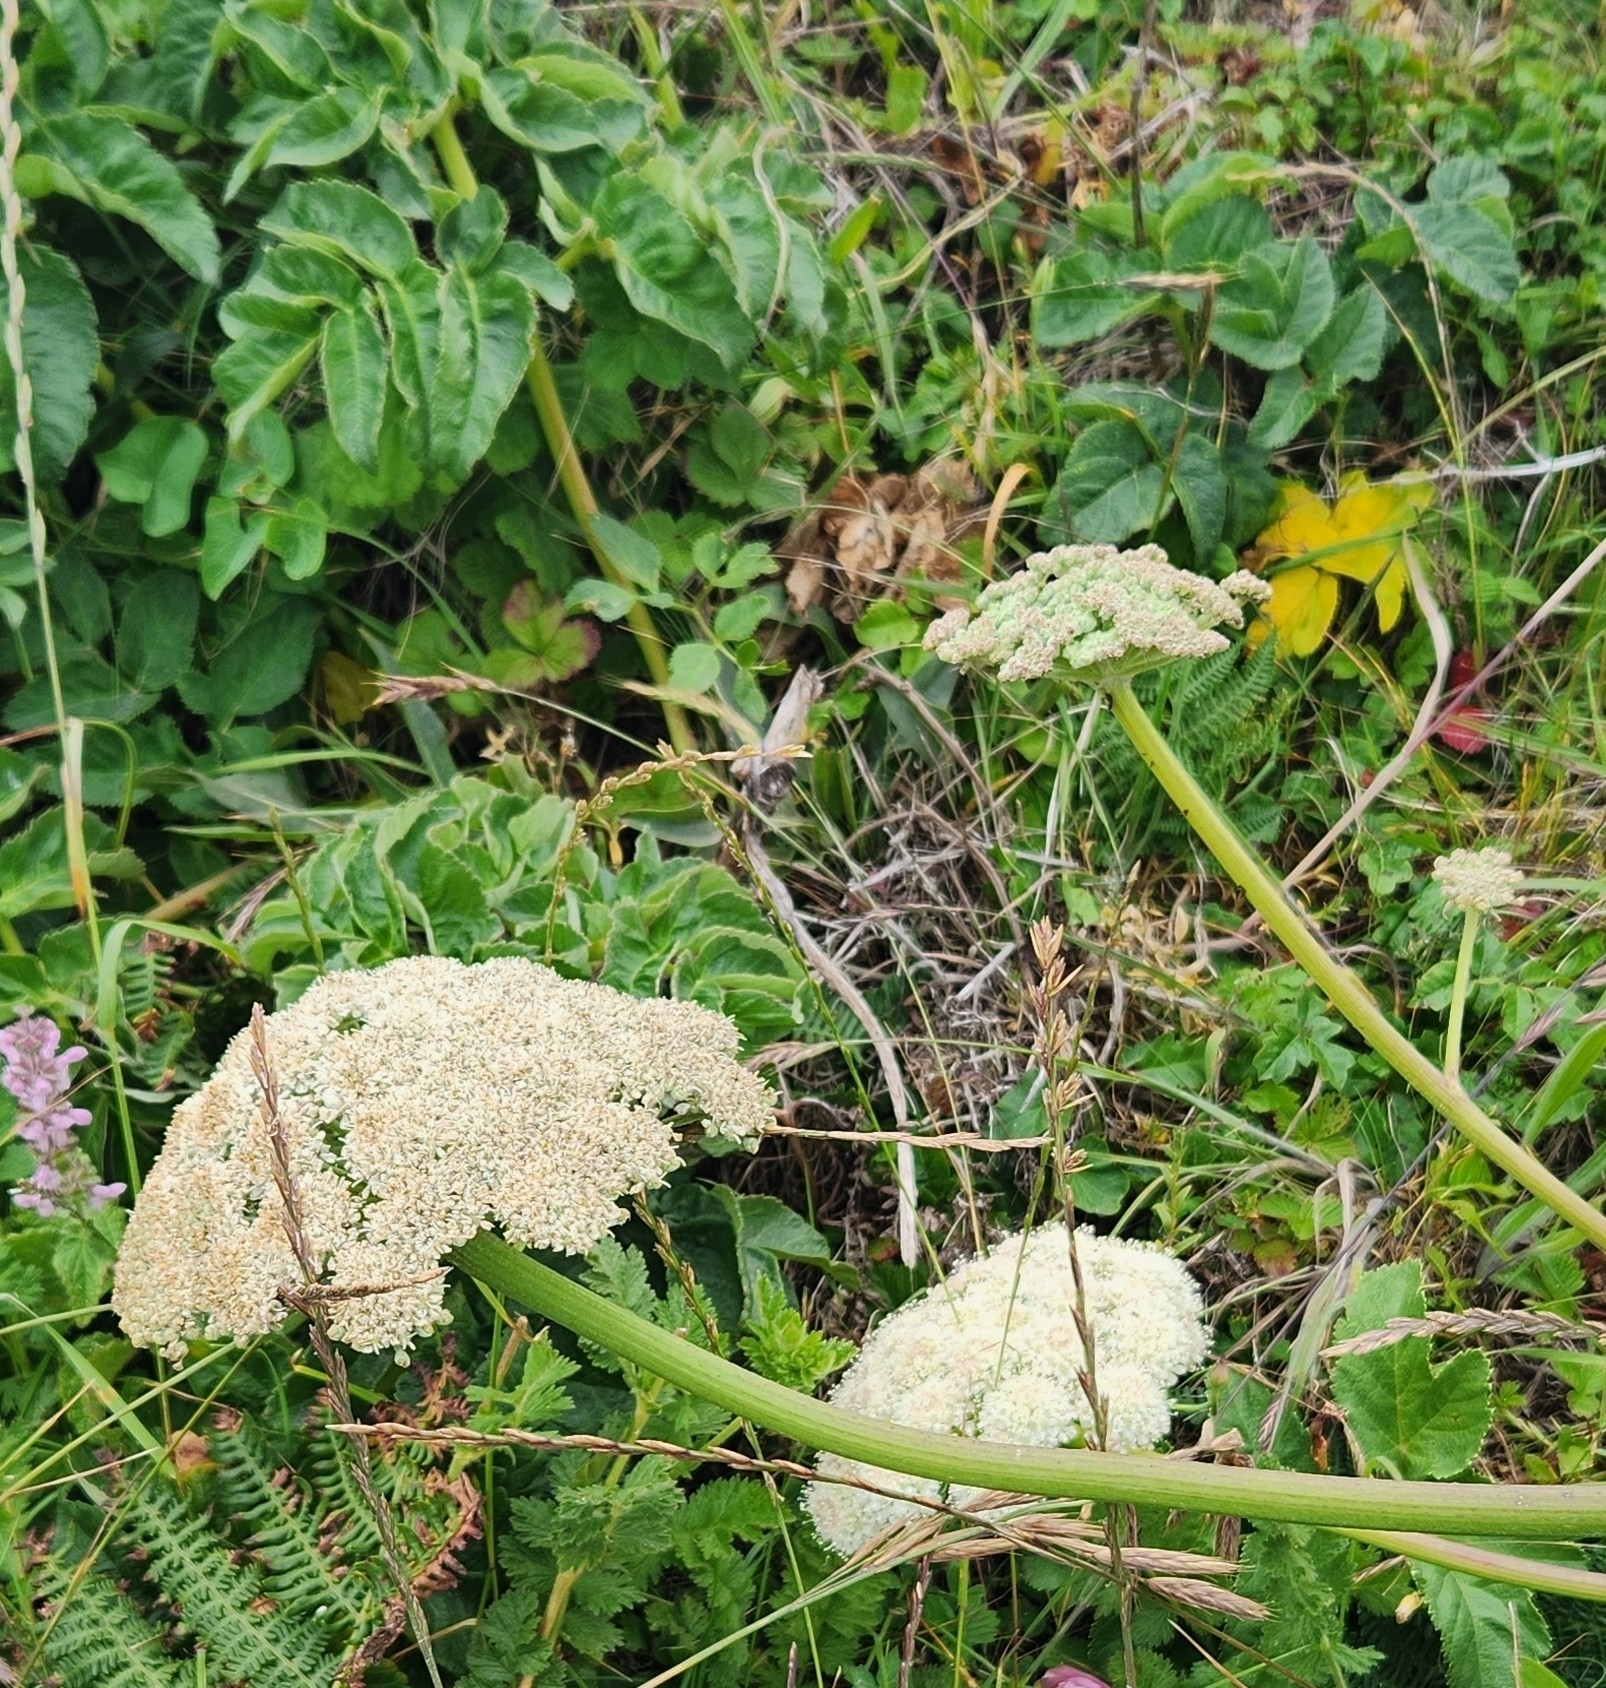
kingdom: Plantae
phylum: Tracheophyta
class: Magnoliopsida
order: Apiales
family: Apiaceae
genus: Angelica
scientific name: Angelica hendersonii
